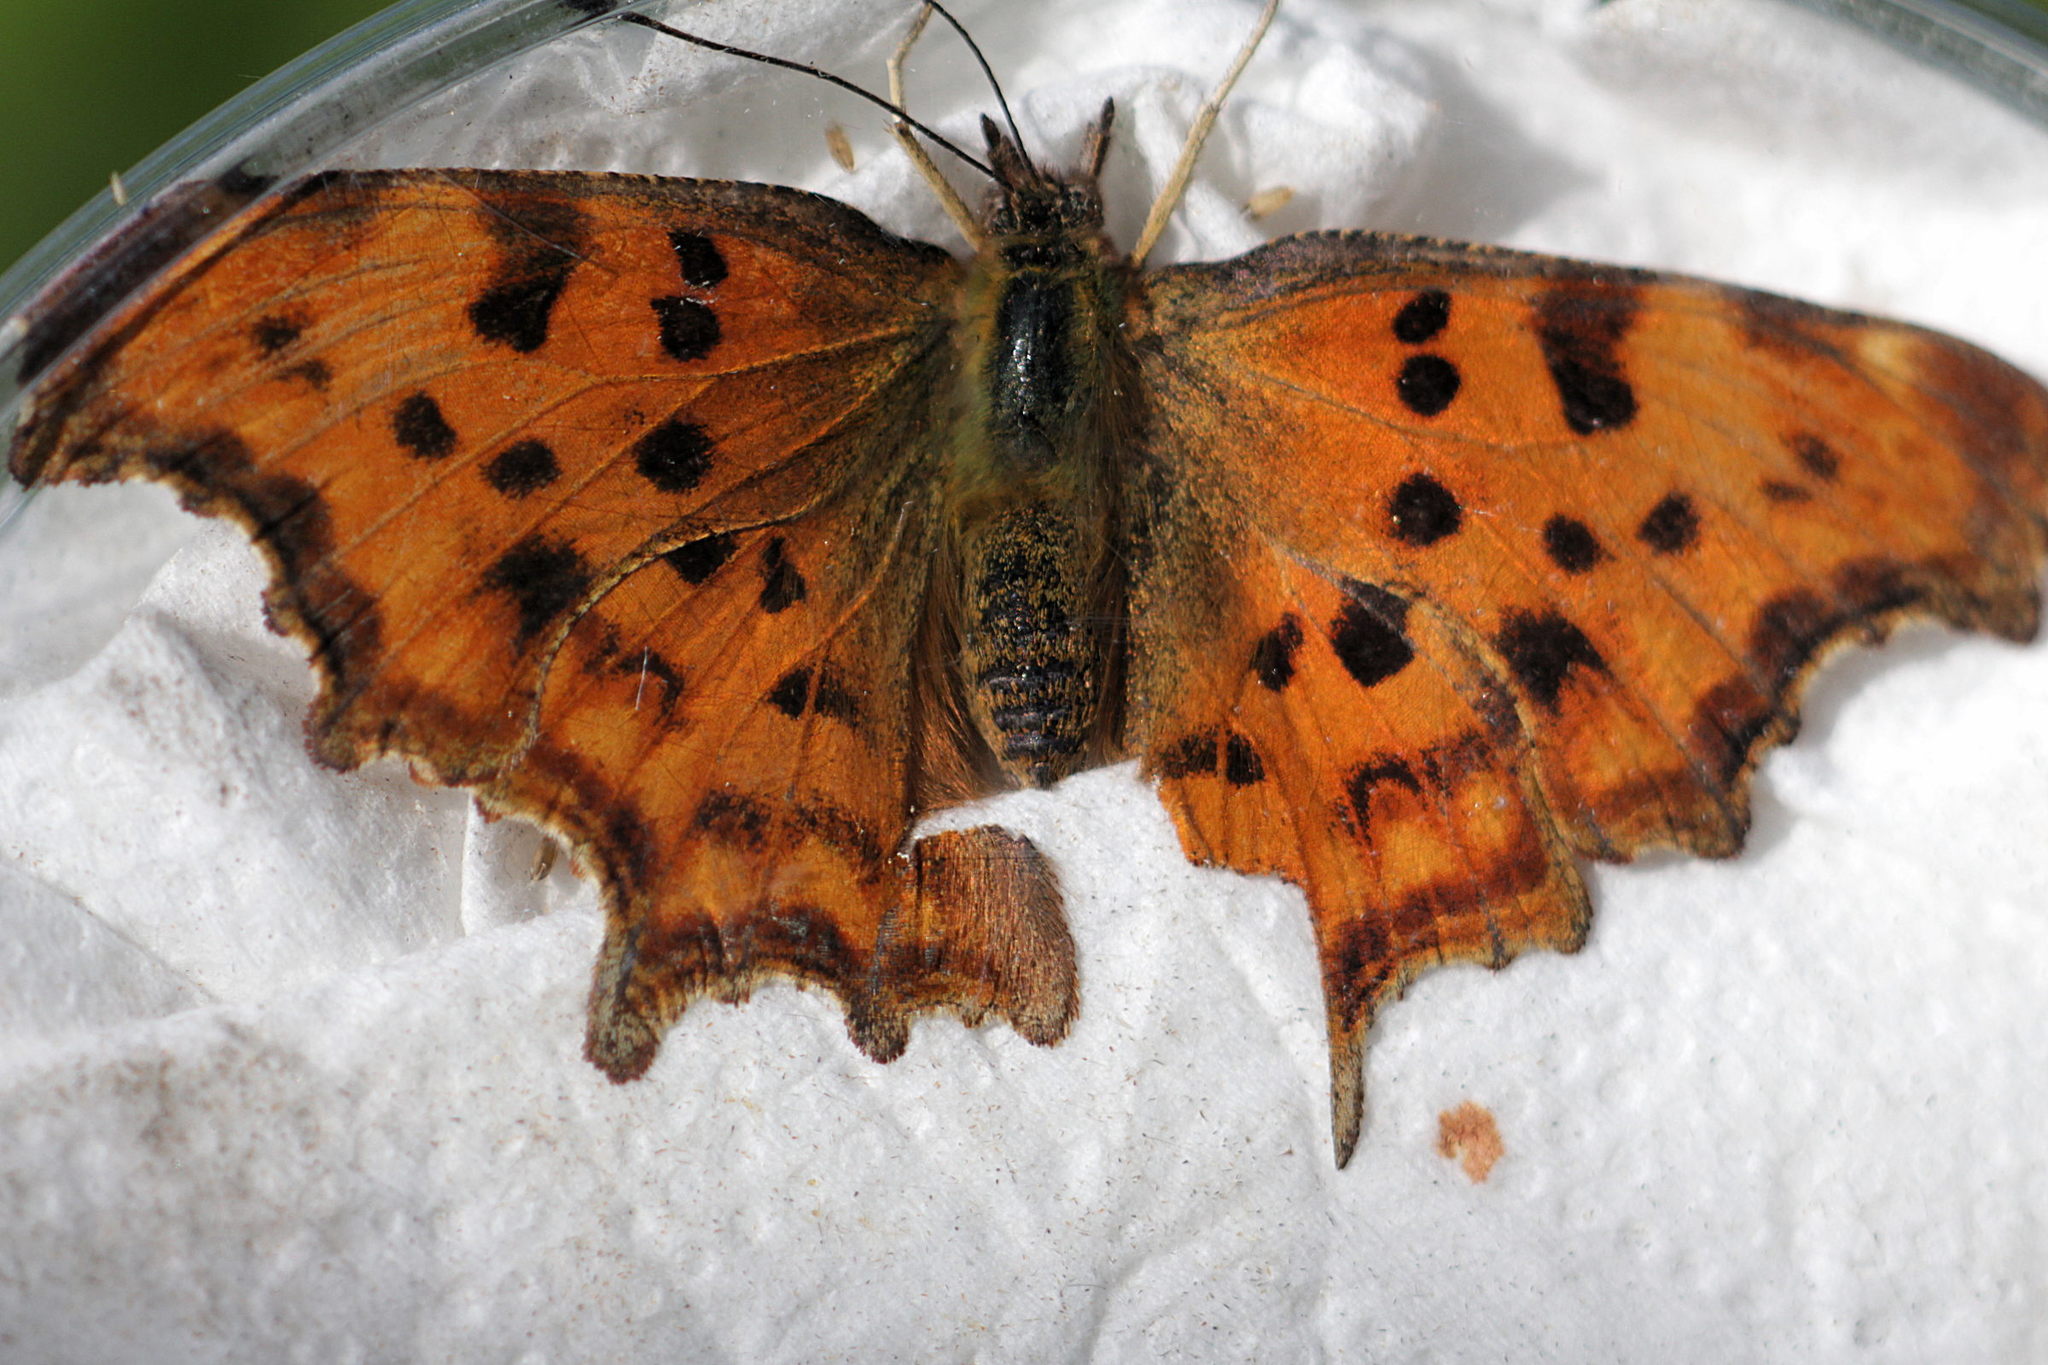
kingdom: Animalia
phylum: Arthropoda
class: Insecta
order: Lepidoptera
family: Nymphalidae
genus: Polygonia
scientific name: Polygonia c-album
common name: Comma
